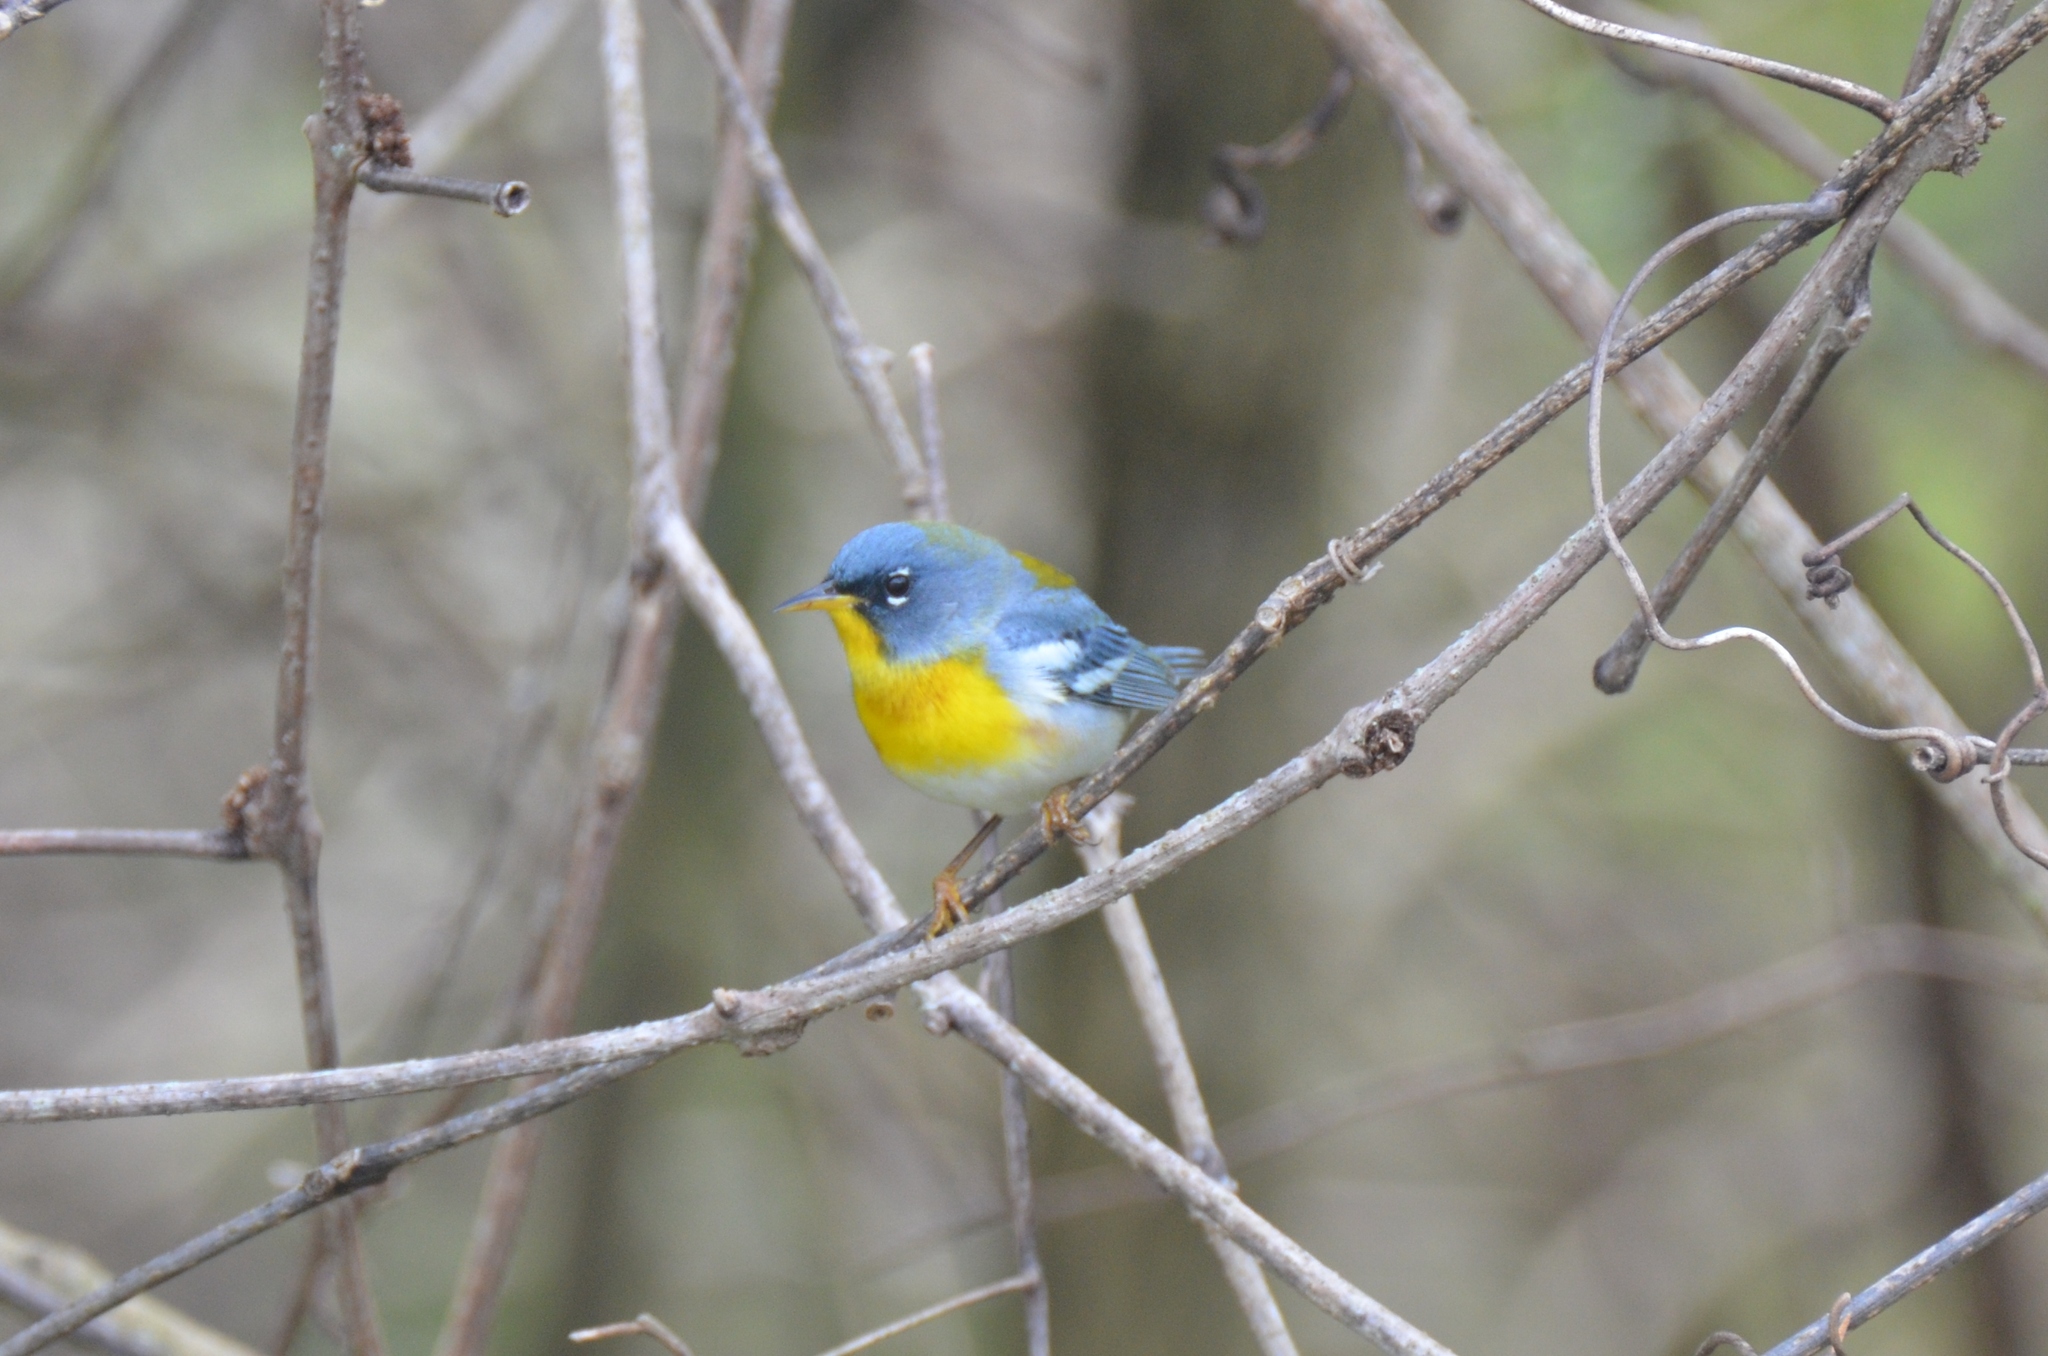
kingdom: Animalia
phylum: Chordata
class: Aves
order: Passeriformes
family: Parulidae
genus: Setophaga
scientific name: Setophaga americana
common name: Northern parula
